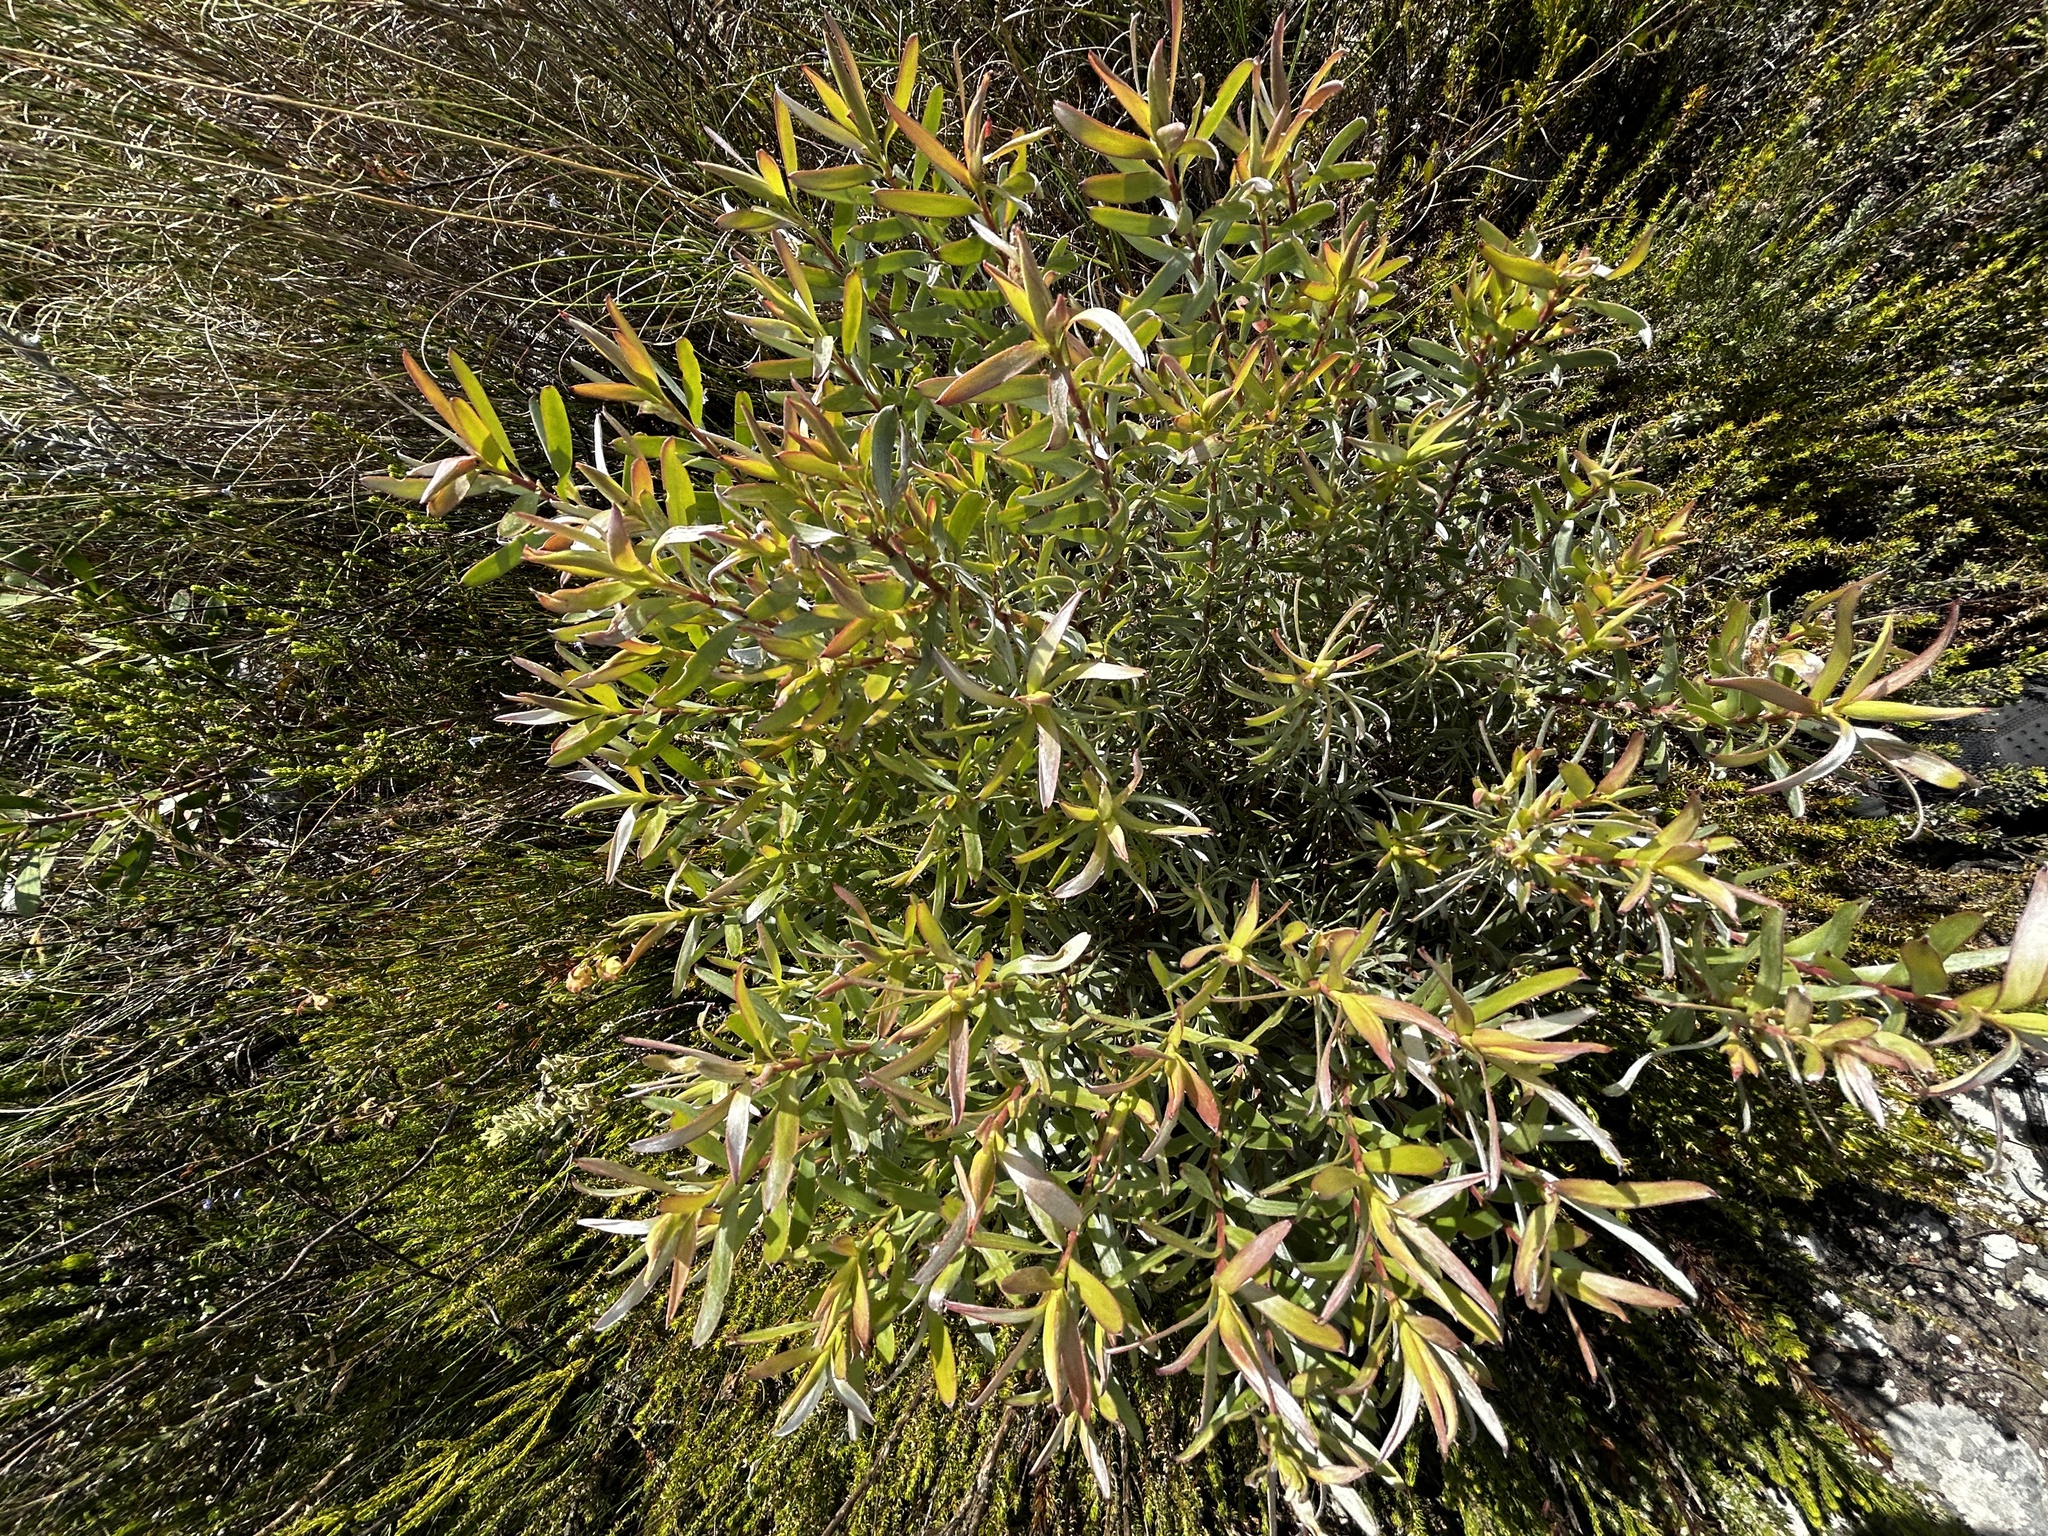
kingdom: Plantae
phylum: Tracheophyta
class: Magnoliopsida
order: Proteales
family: Proteaceae
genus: Leucadendron
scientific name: Leucadendron meridianum
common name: Limestone conebush
